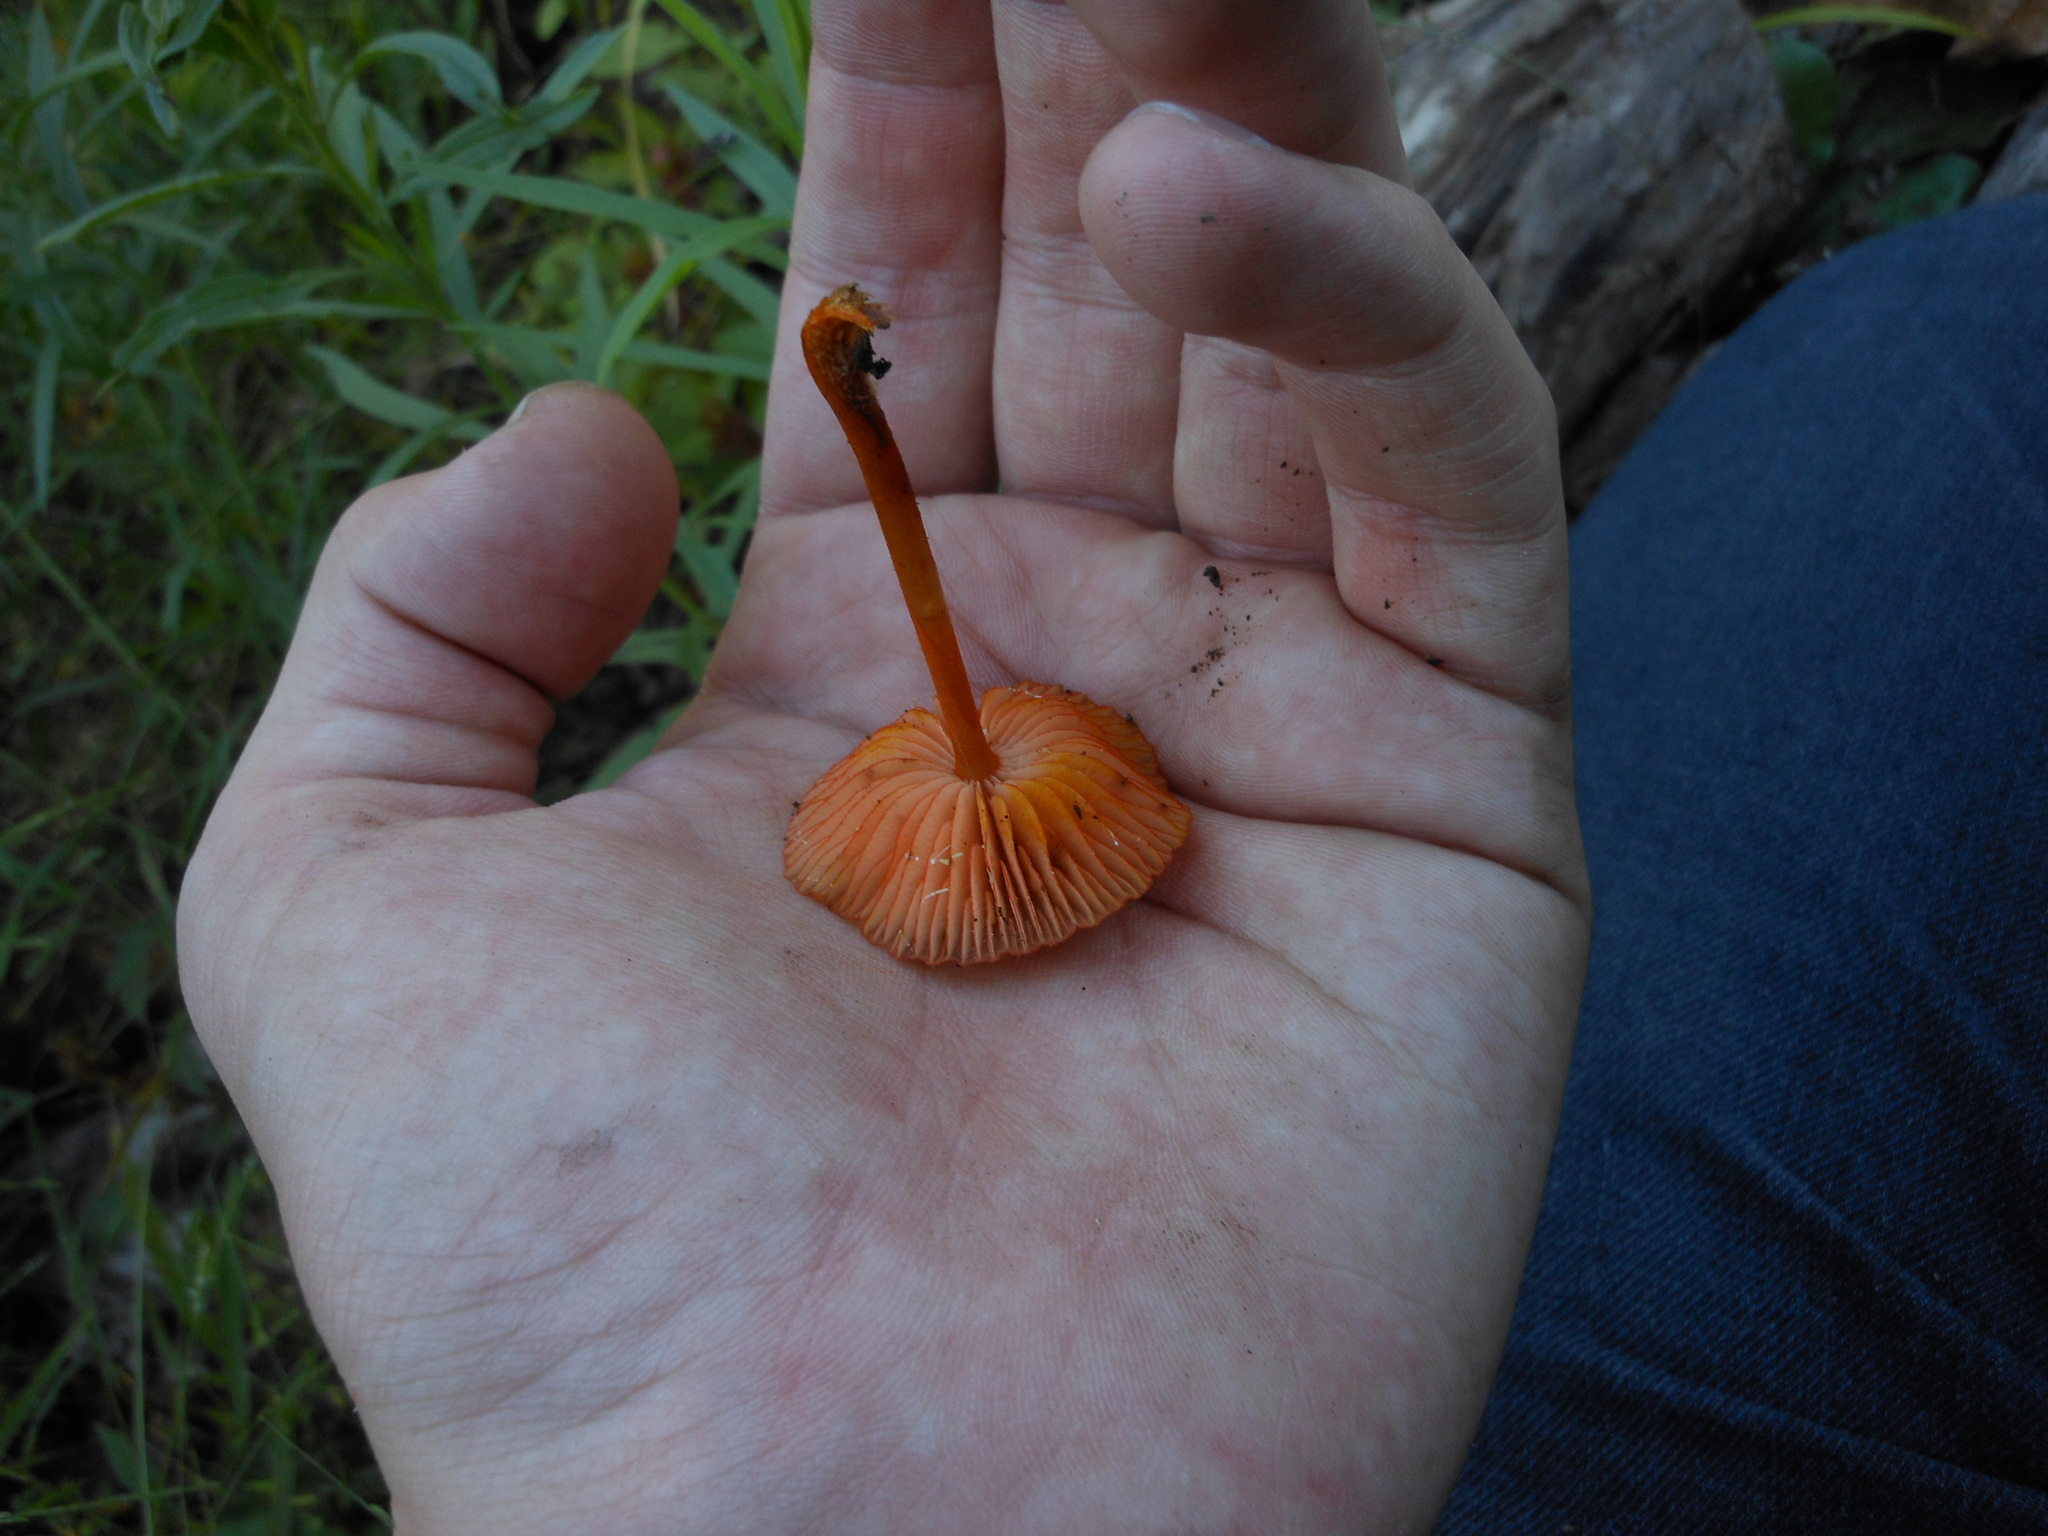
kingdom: Fungi
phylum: Basidiomycota
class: Agaricomycetes
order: Agaricales
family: Mycenaceae
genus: Mycena
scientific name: Mycena leaiana
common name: Orange mycena
